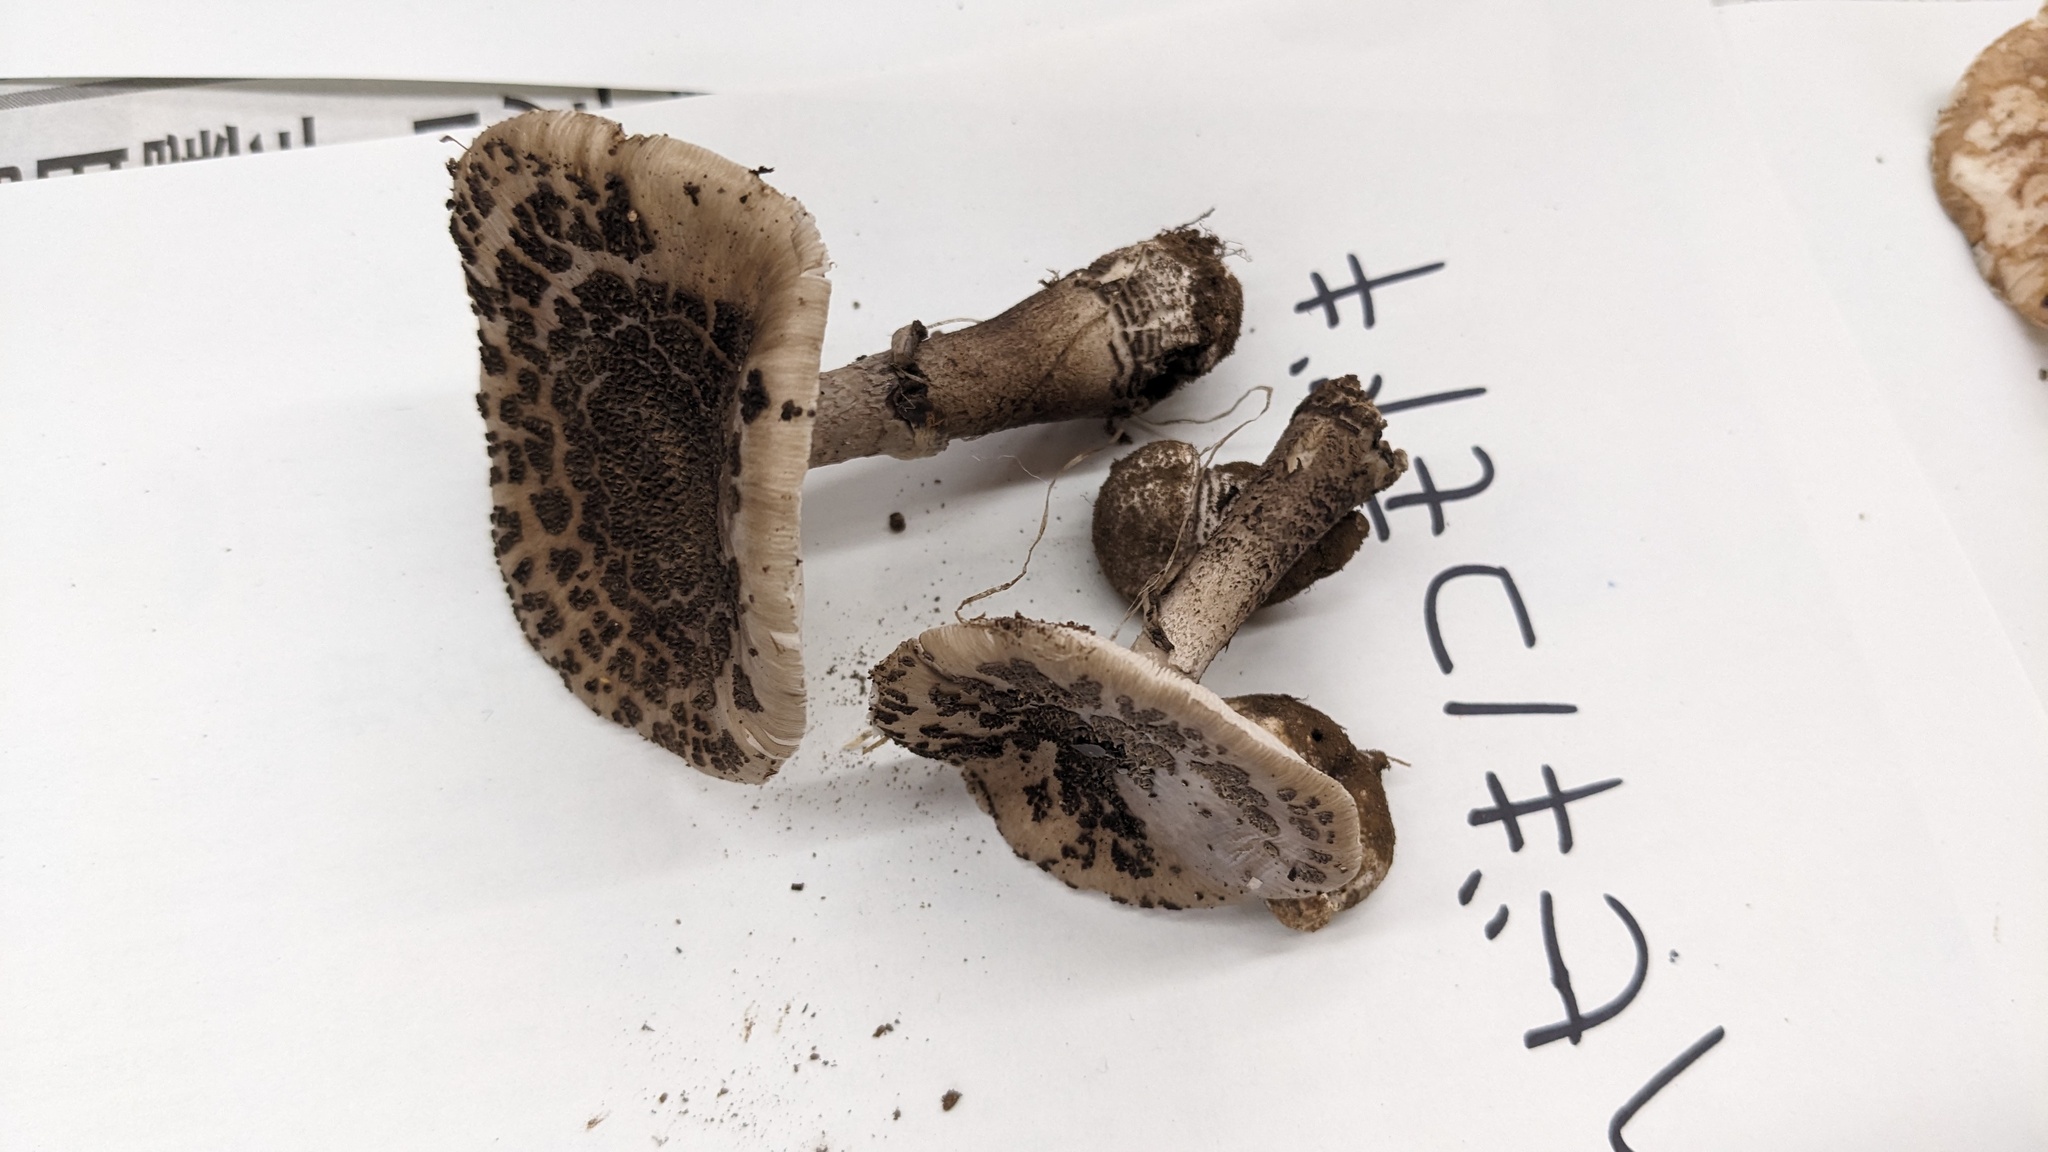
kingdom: Fungi
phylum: Basidiomycota
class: Agaricomycetes
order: Agaricales
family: Amanitaceae
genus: Amanita
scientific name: Amanita spissacea
